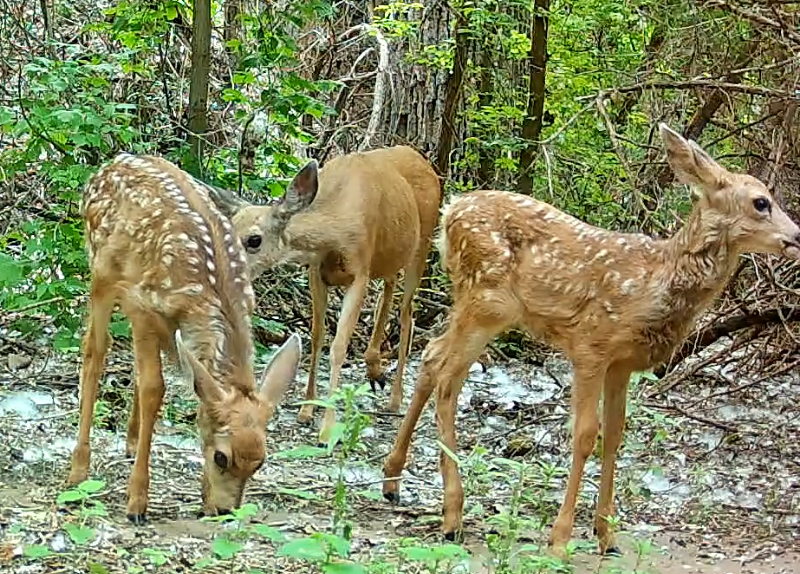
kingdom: Animalia
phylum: Chordata
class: Mammalia
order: Artiodactyla
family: Cervidae
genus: Odocoileus
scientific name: Odocoileus hemionus
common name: Mule deer
